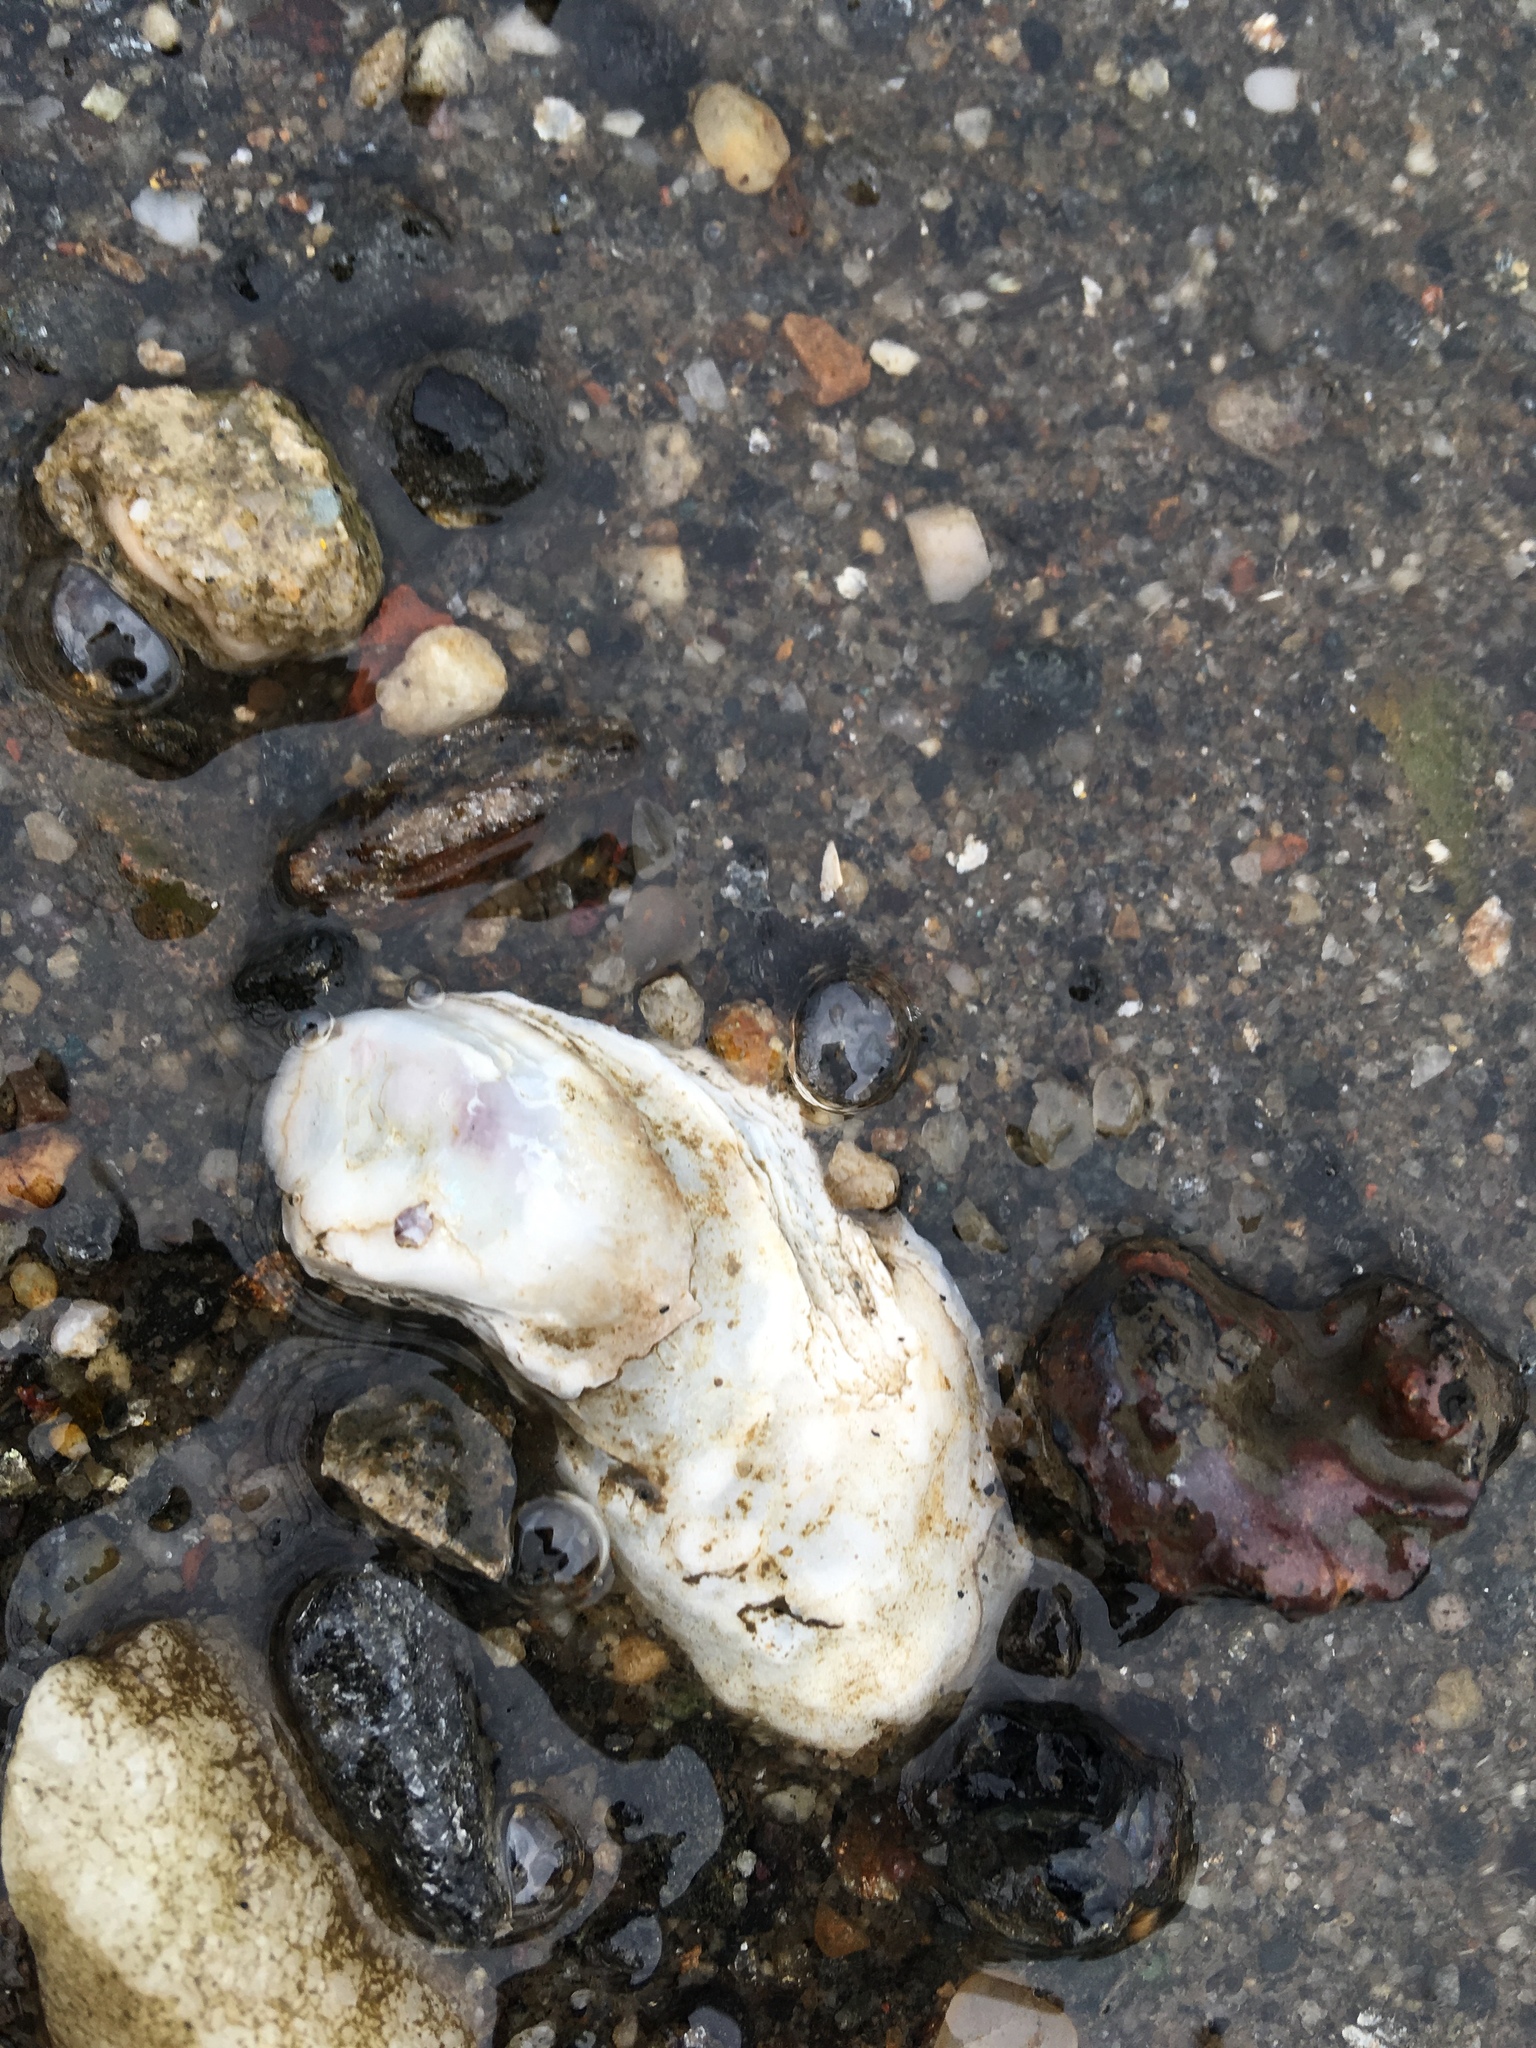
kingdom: Animalia
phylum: Mollusca
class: Bivalvia
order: Ostreida
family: Ostreidae
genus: Crassostrea
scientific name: Crassostrea virginica
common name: American oyster
